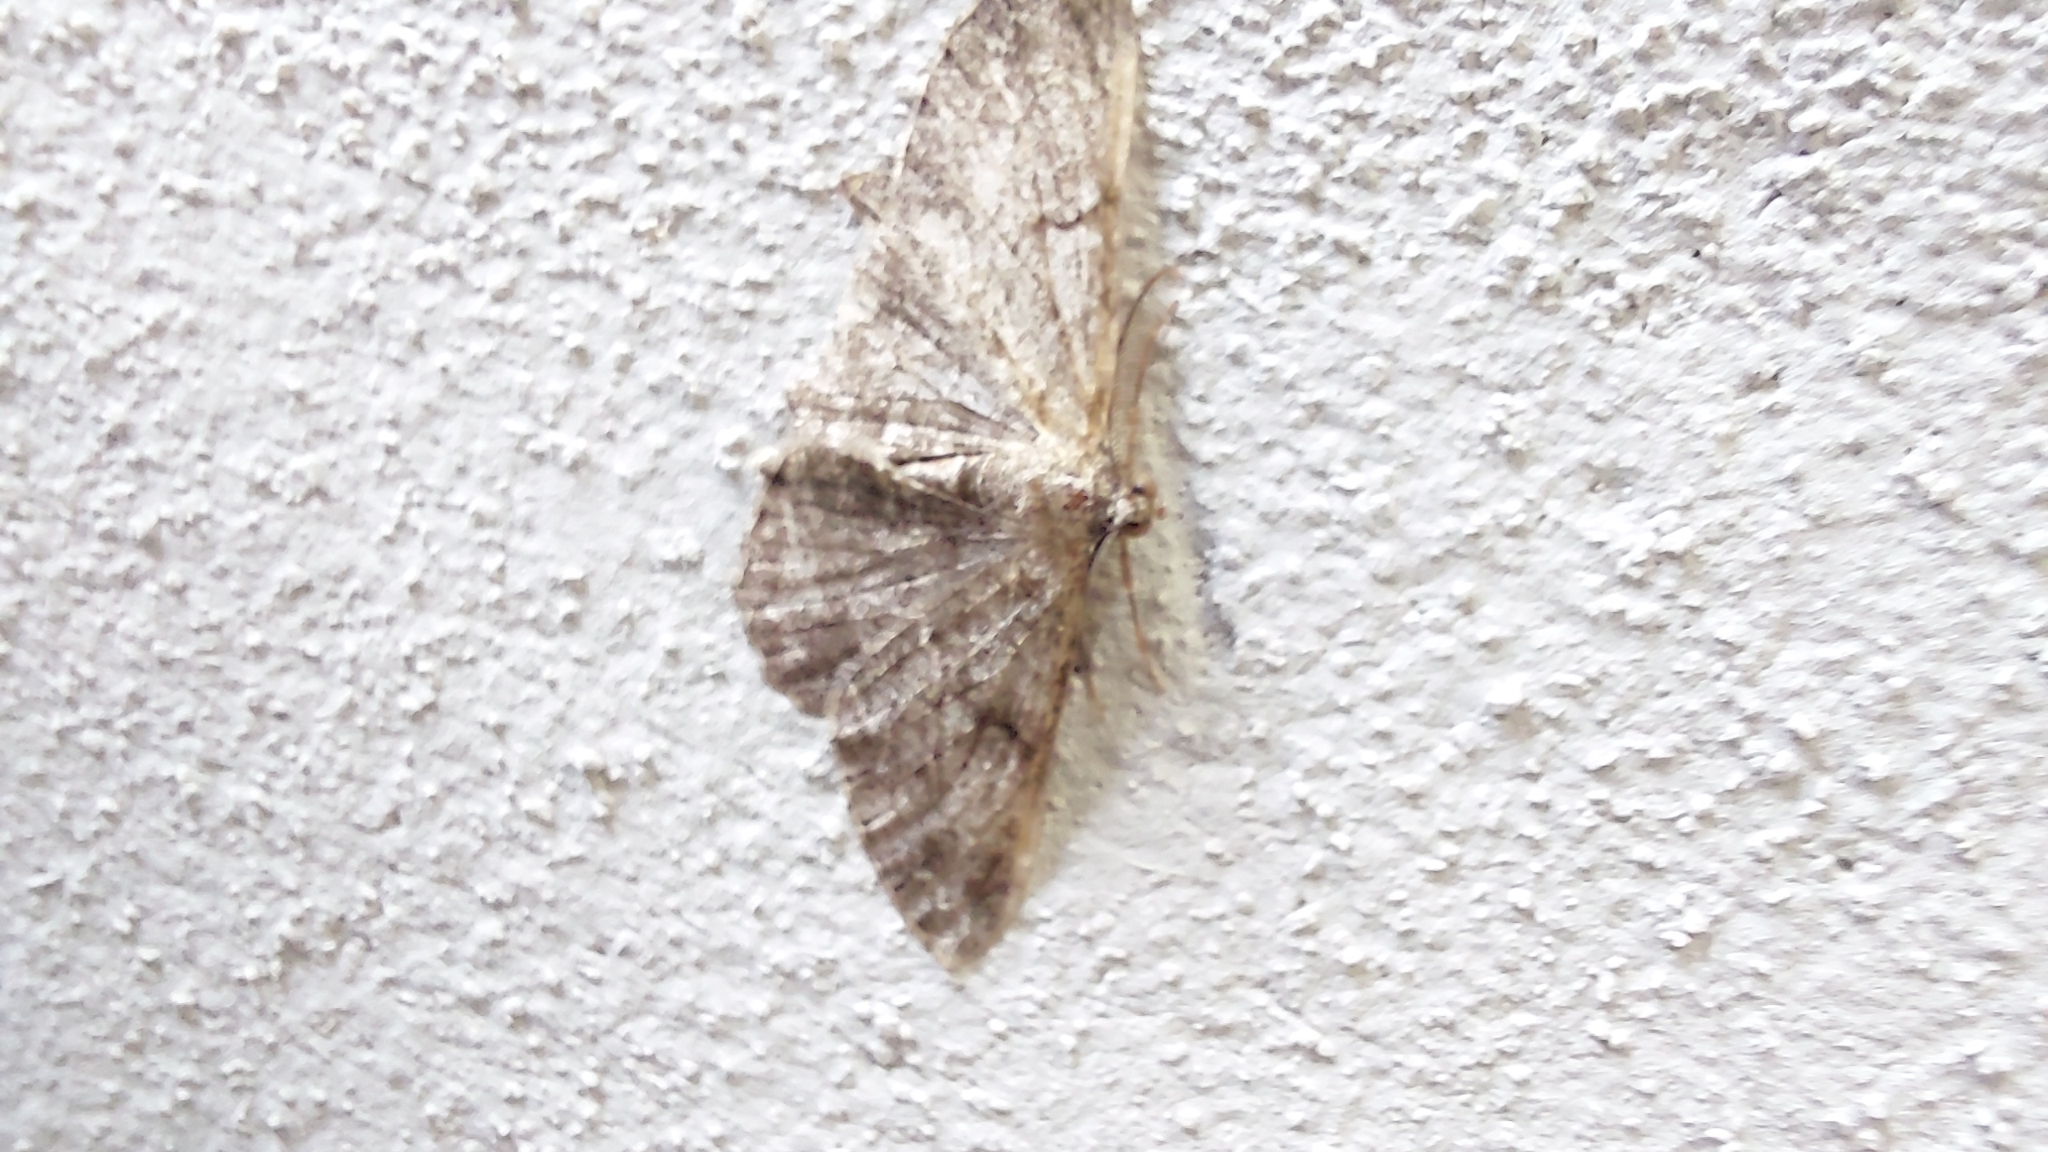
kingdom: Animalia
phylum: Arthropoda
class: Insecta
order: Lepidoptera
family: Geometridae
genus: Peribatodes
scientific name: Peribatodes rhomboidaria
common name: Willow beauty
